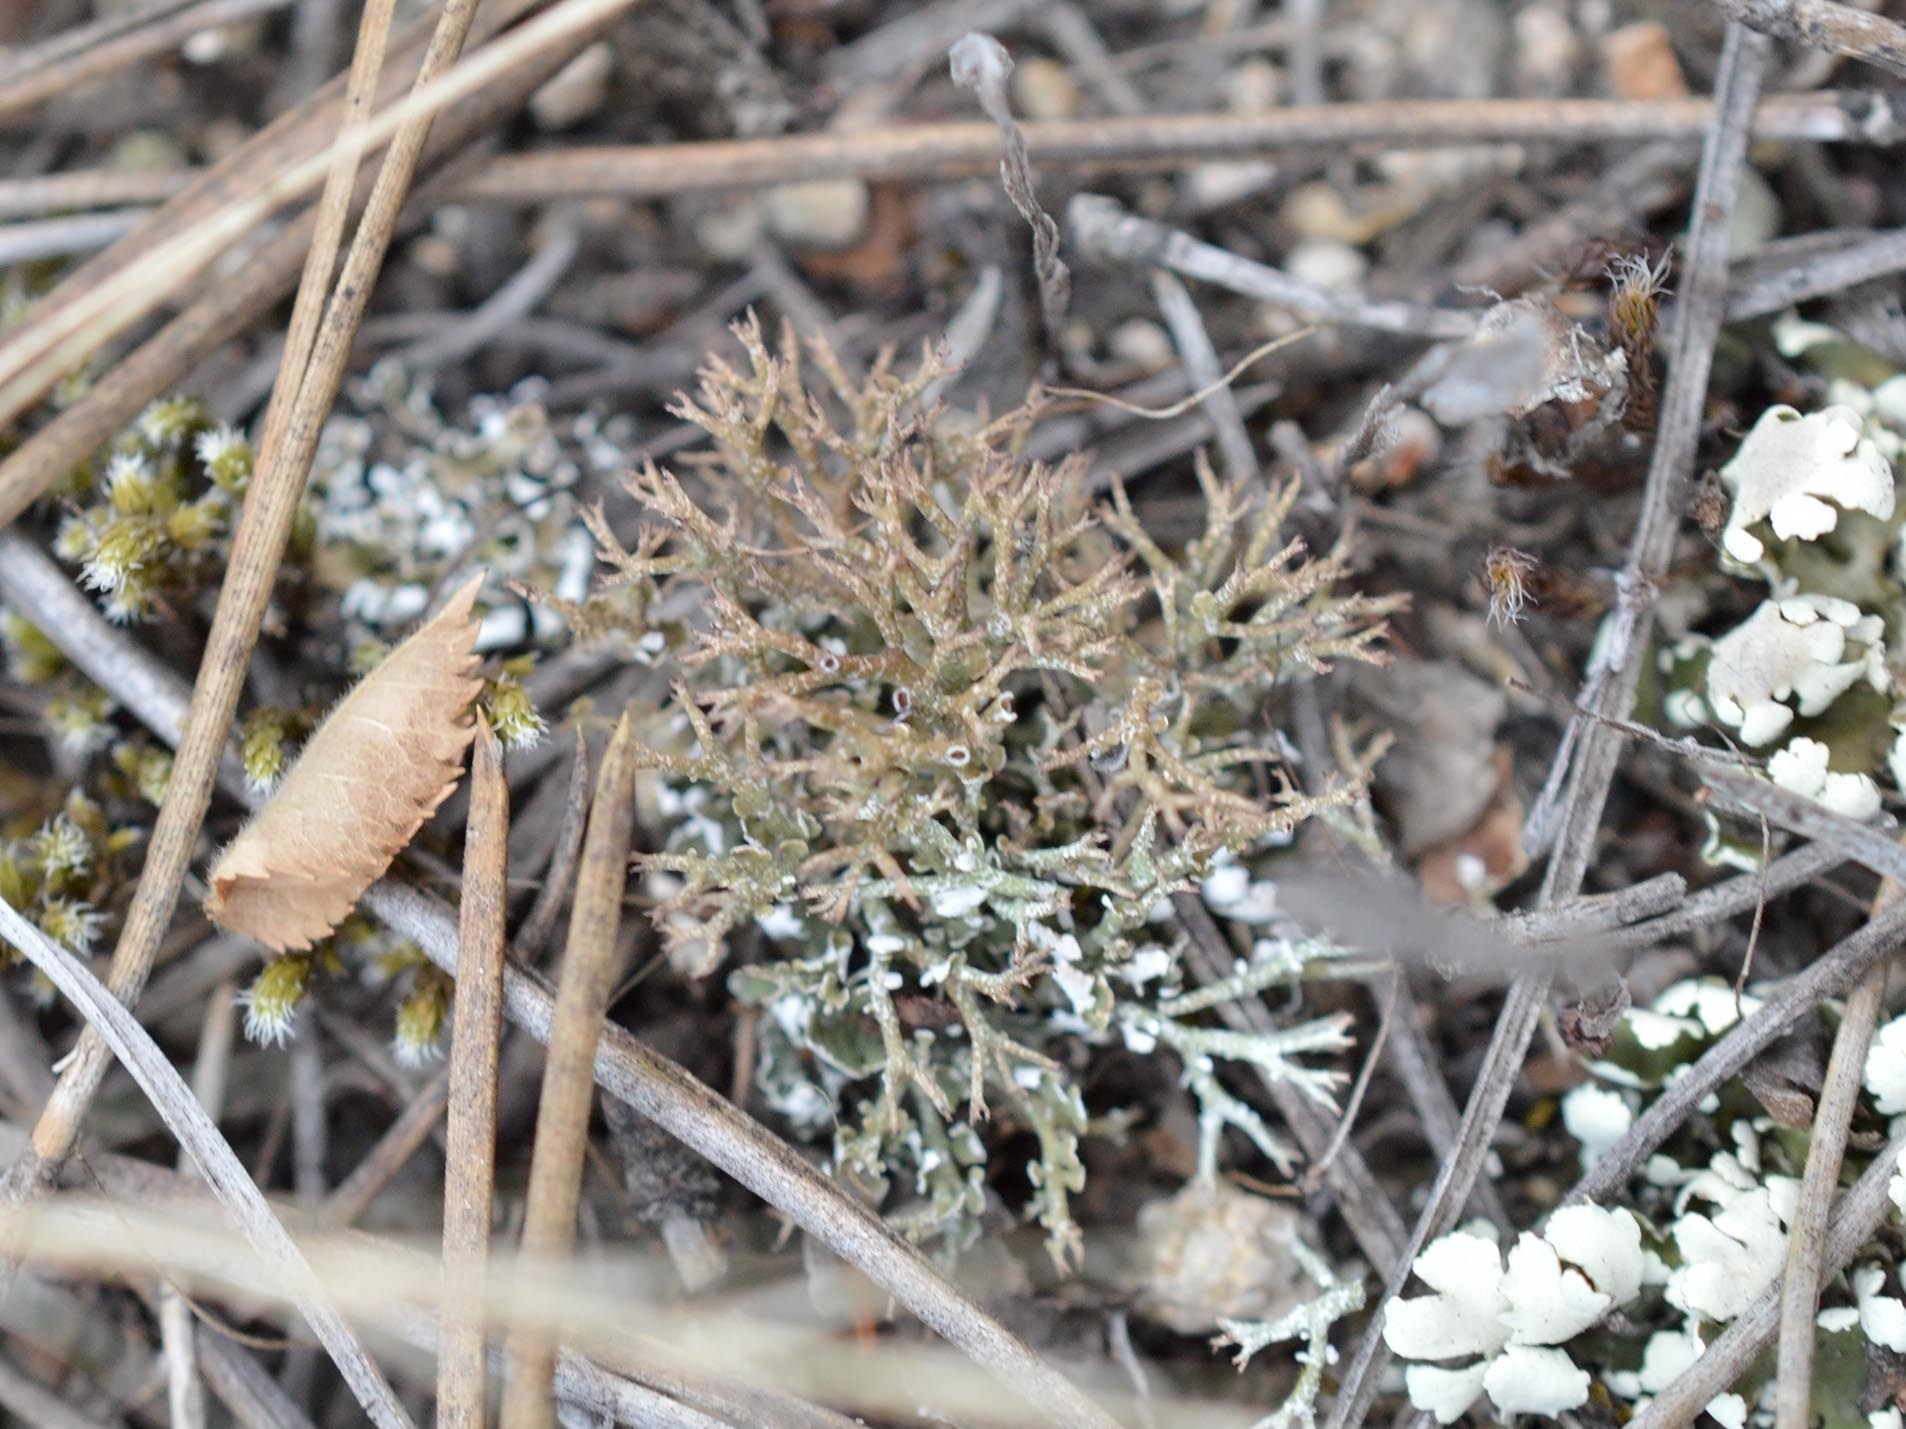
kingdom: Fungi
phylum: Ascomycota
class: Lecanoromycetes
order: Lecanorales
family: Cladoniaceae
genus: Cladonia
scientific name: Cladonia rangiformis
